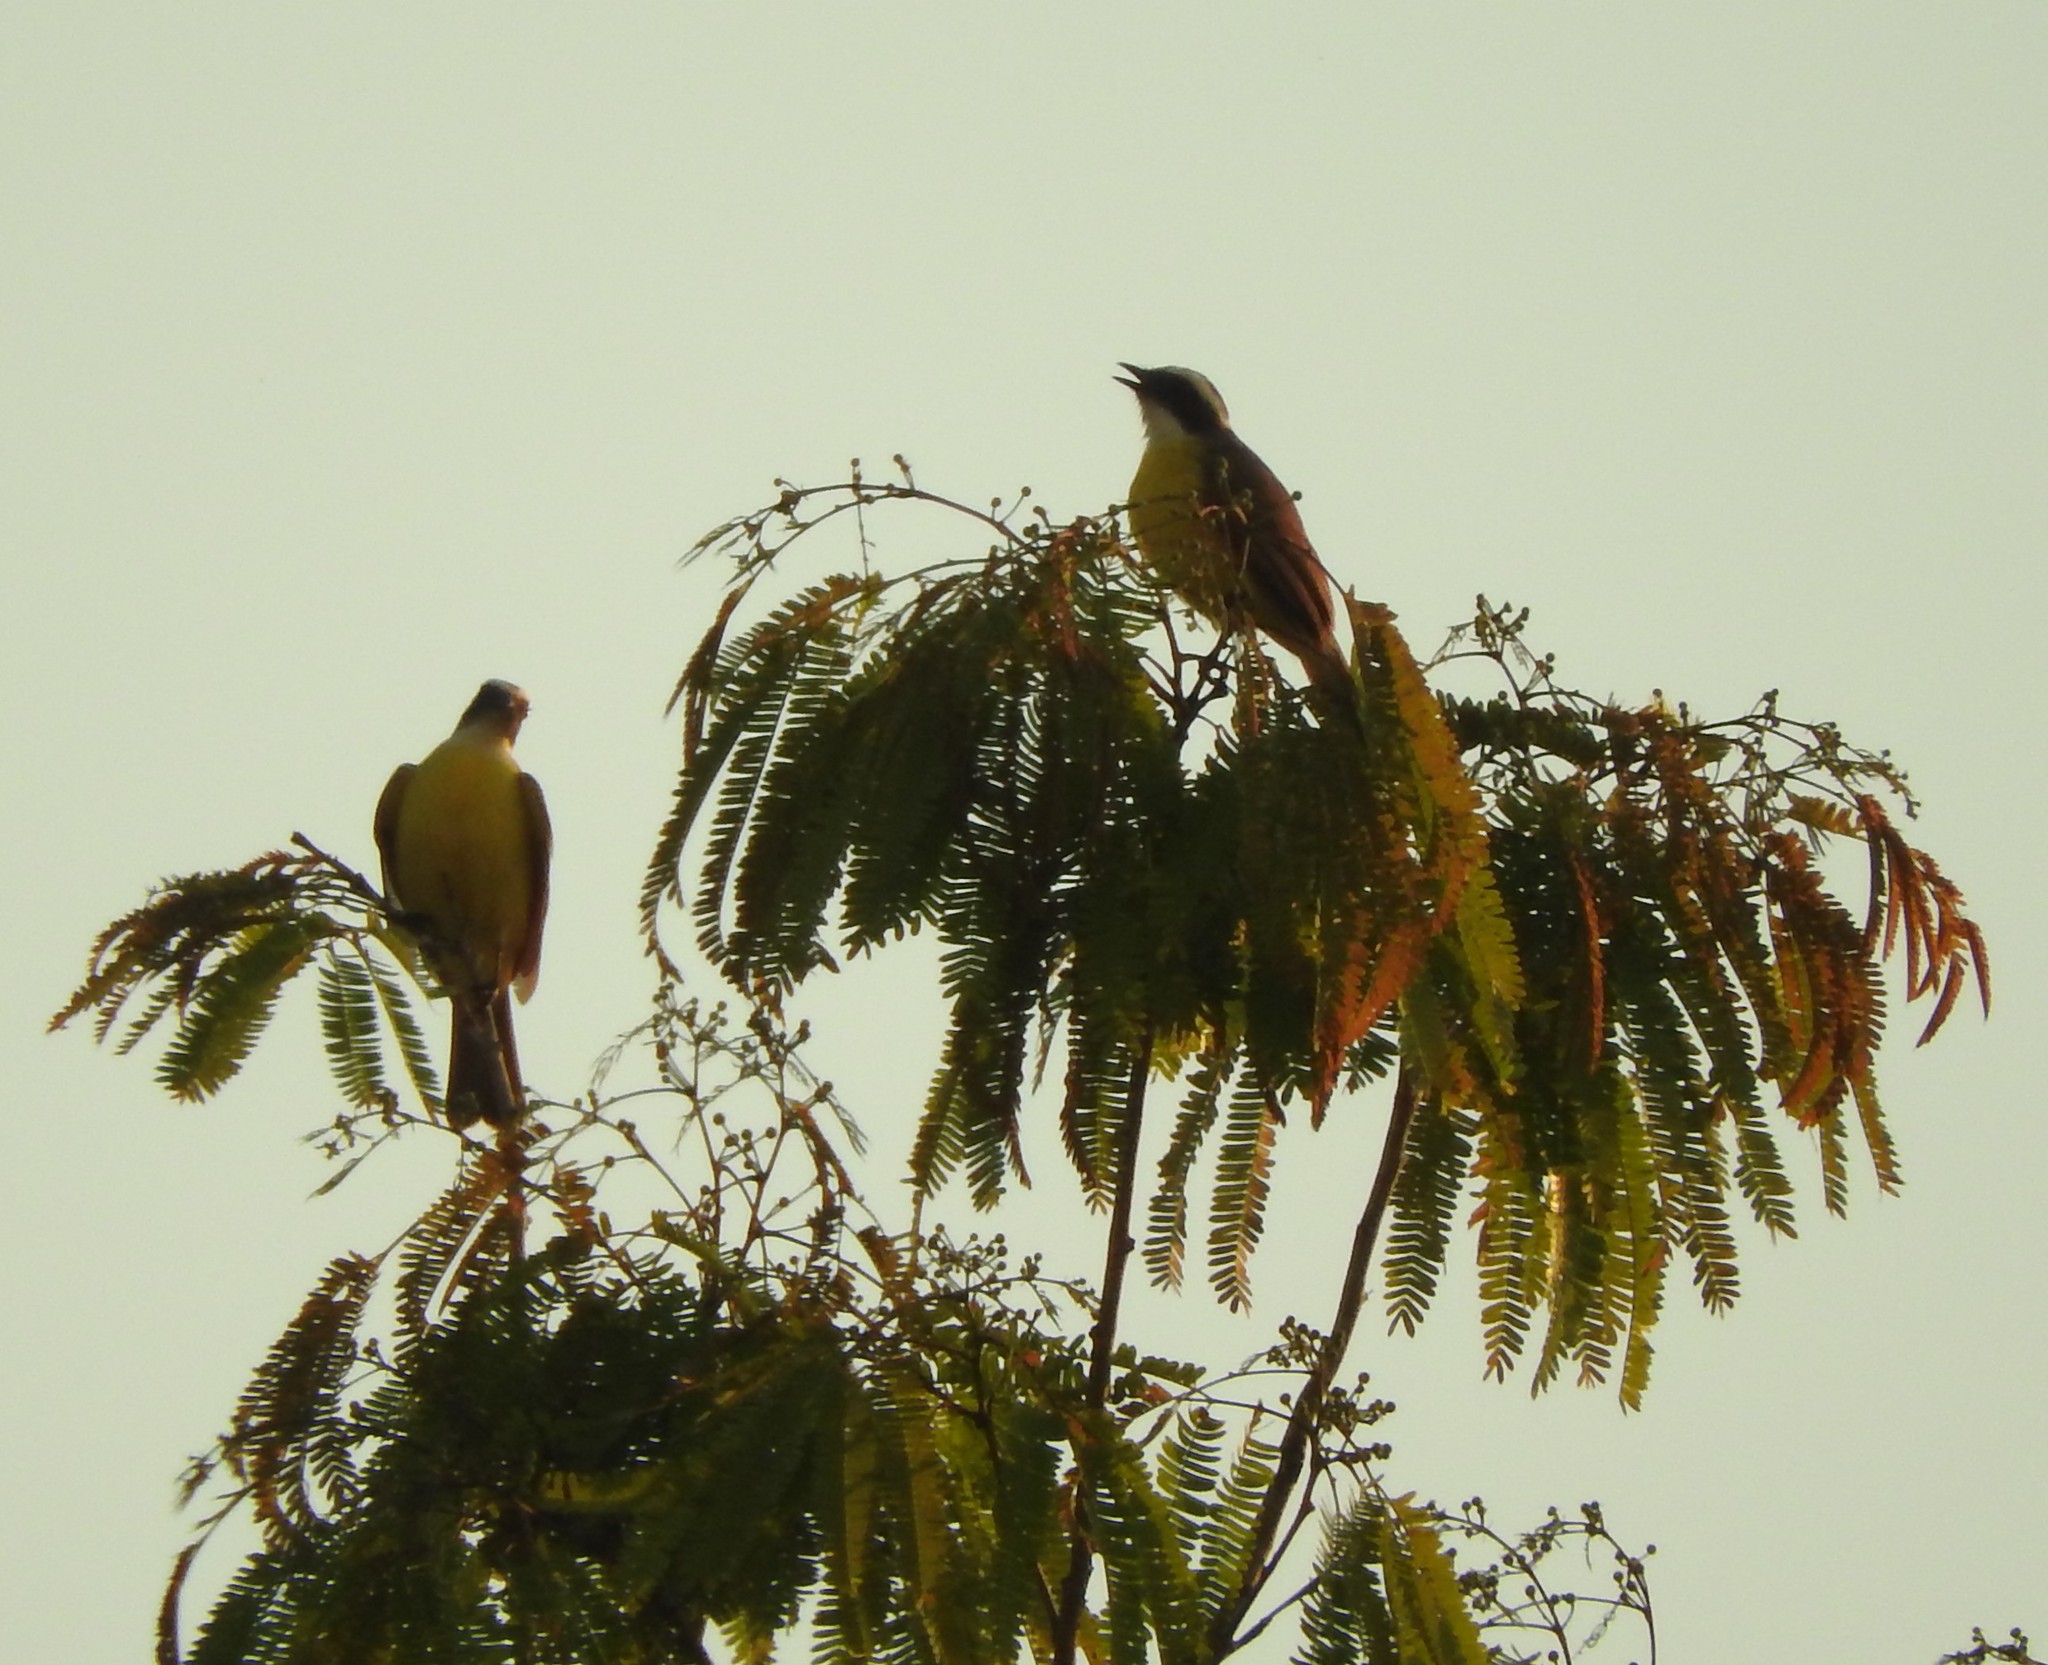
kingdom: Animalia
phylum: Chordata
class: Aves
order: Passeriformes
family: Tyrannidae
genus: Myiozetetes
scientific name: Myiozetetes similis
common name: Social flycatcher
